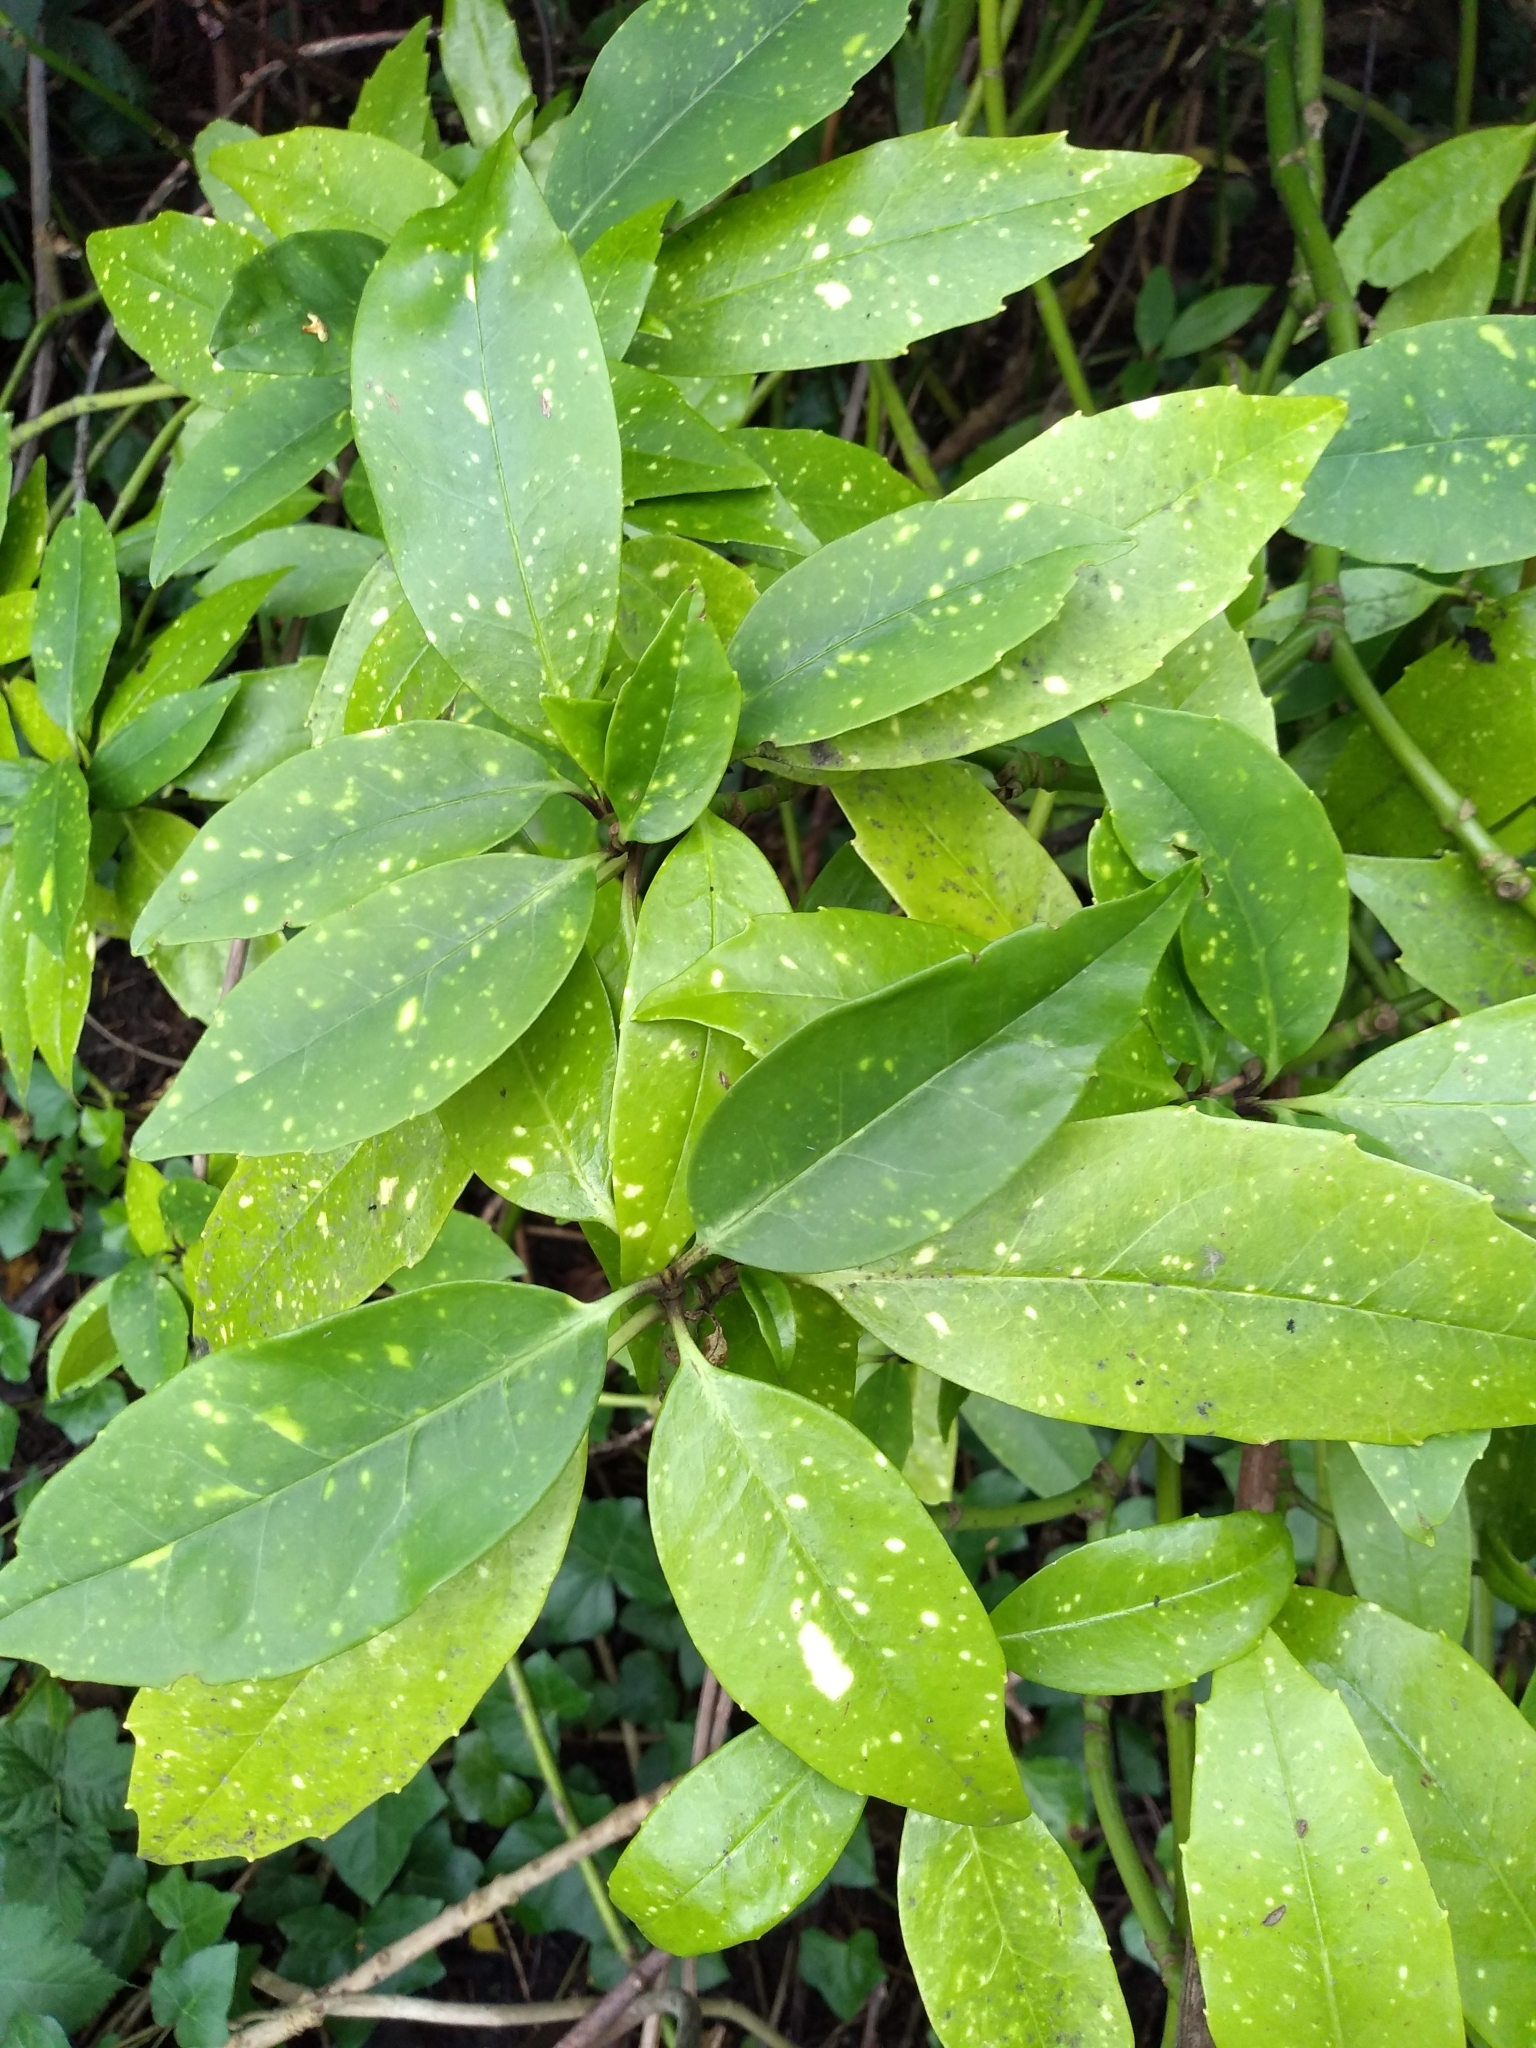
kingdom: Plantae
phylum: Tracheophyta
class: Magnoliopsida
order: Garryales
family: Garryaceae
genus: Aucuba
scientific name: Aucuba japonica
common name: Spotted-laurel
